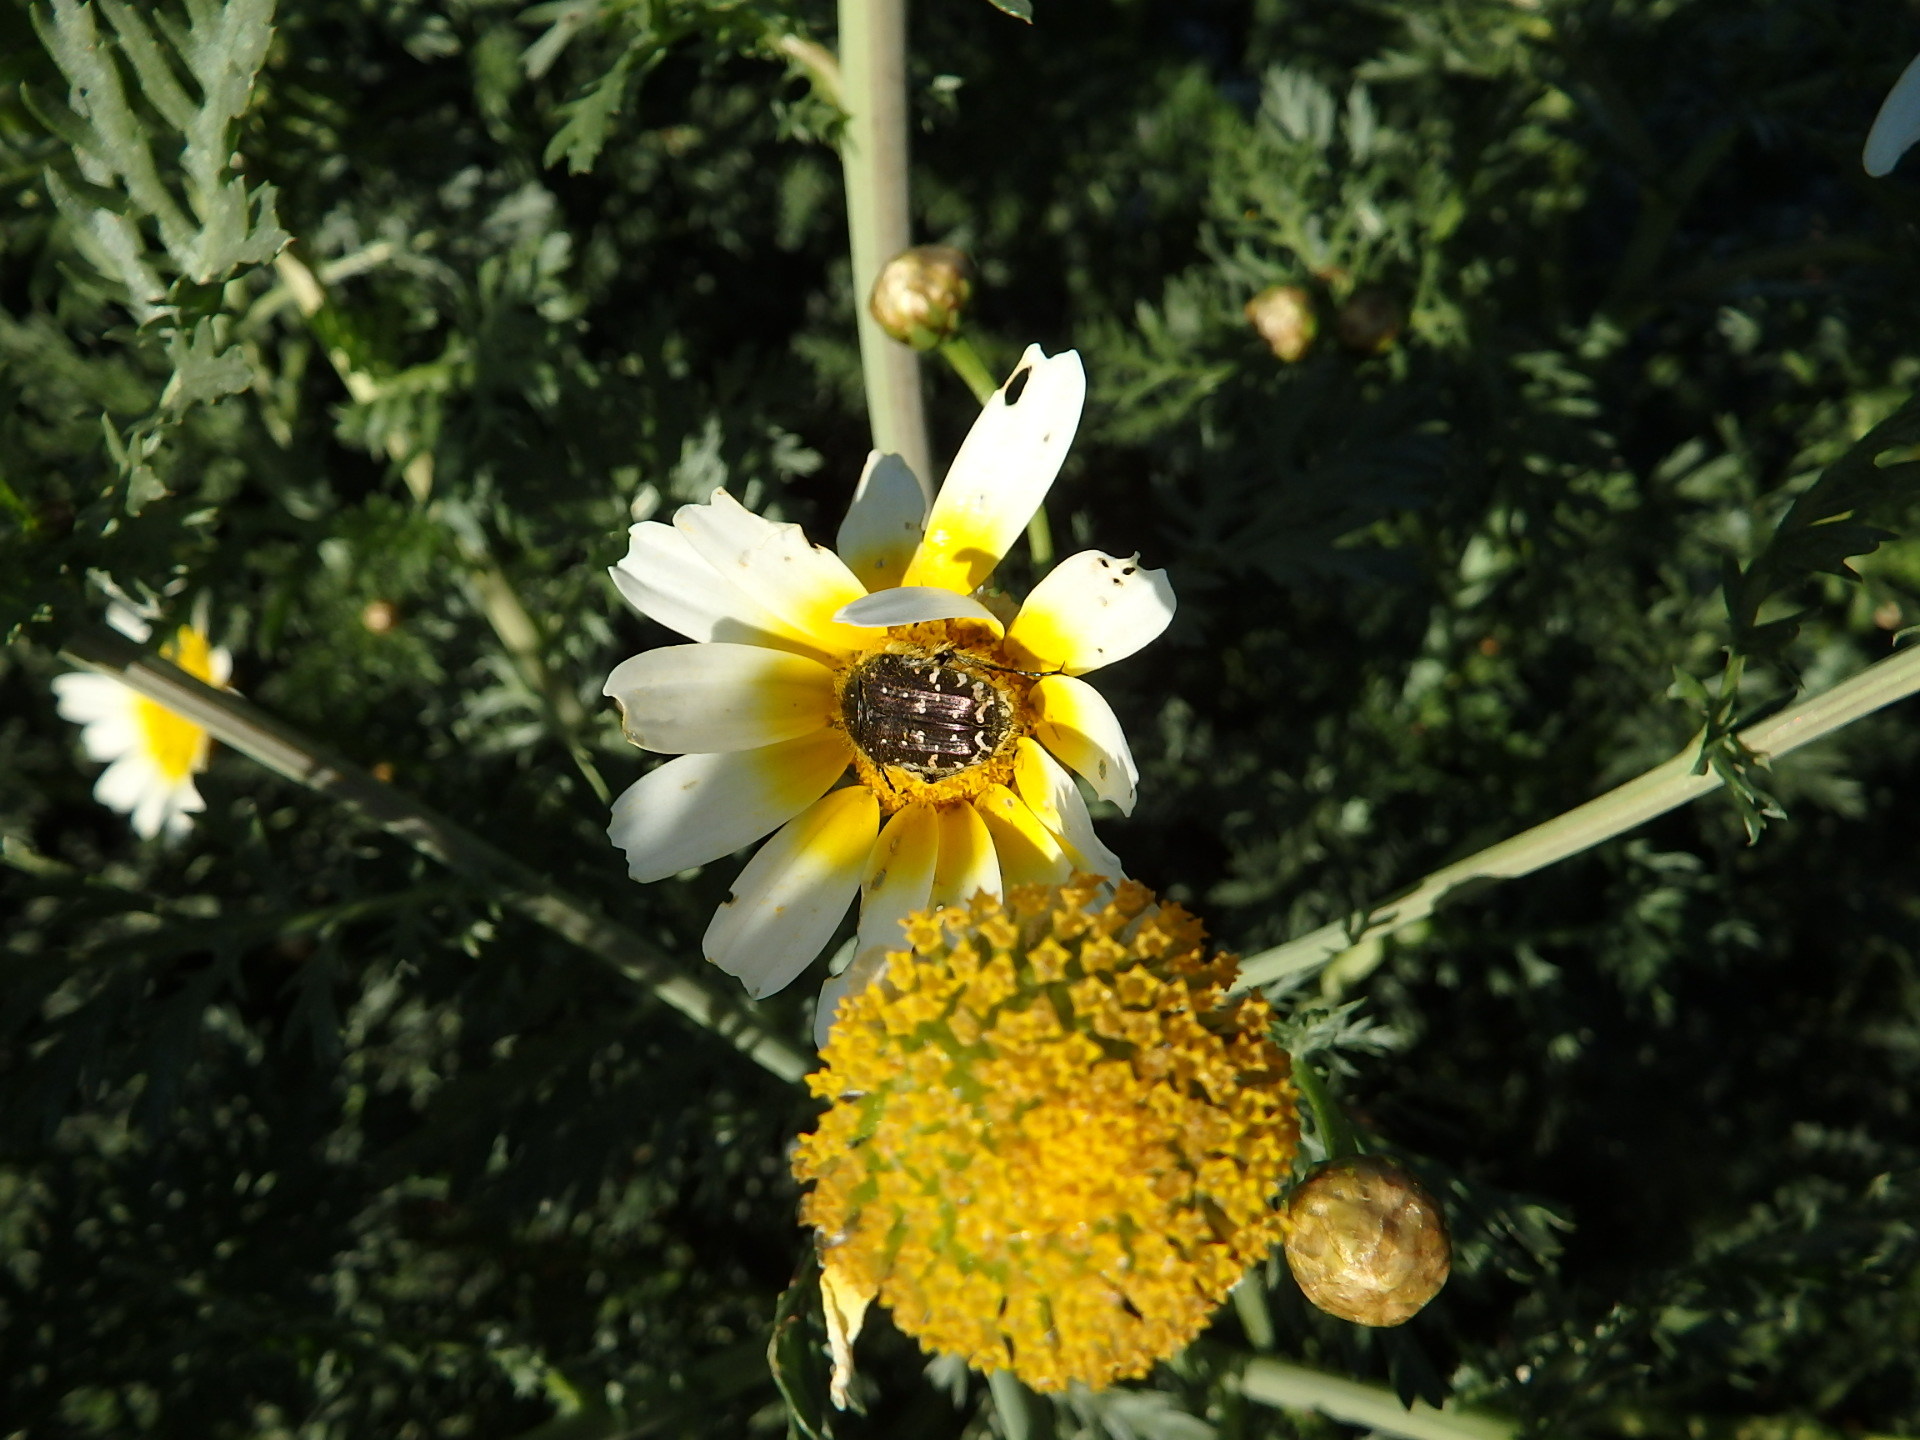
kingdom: Animalia
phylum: Arthropoda
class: Insecta
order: Coleoptera
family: Scarabaeidae
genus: Oxythyrea
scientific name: Oxythyrea funesta
